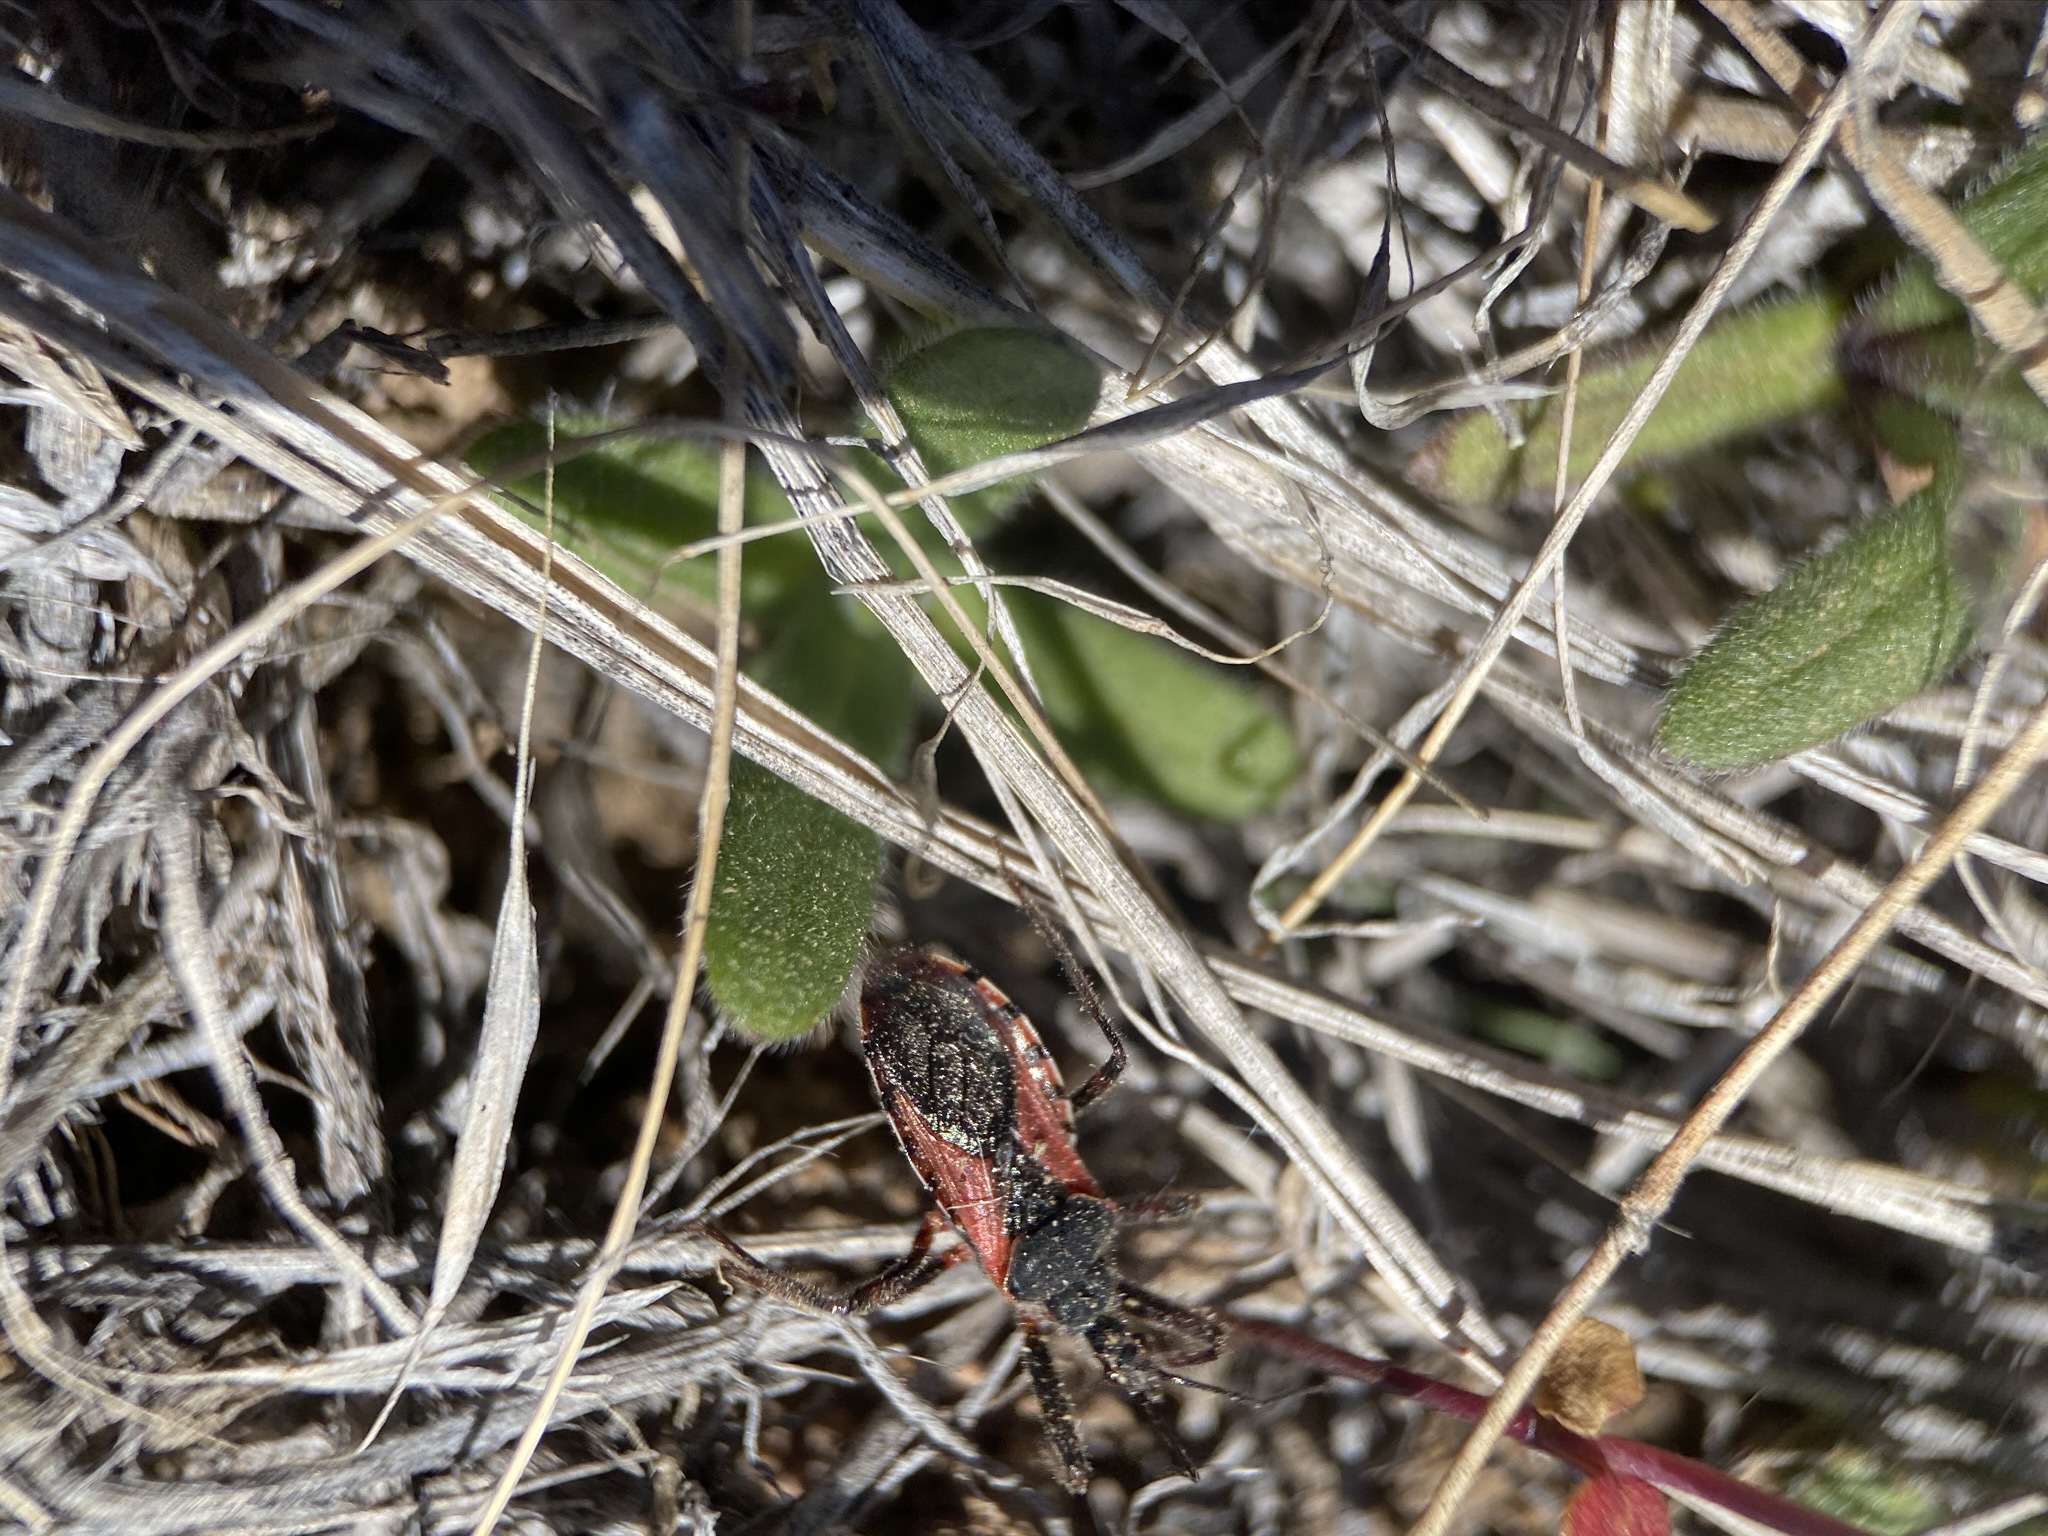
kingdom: Animalia
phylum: Arthropoda
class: Insecta
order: Hemiptera
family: Reduviidae
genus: Rhynocoris
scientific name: Rhynocoris ventralis
